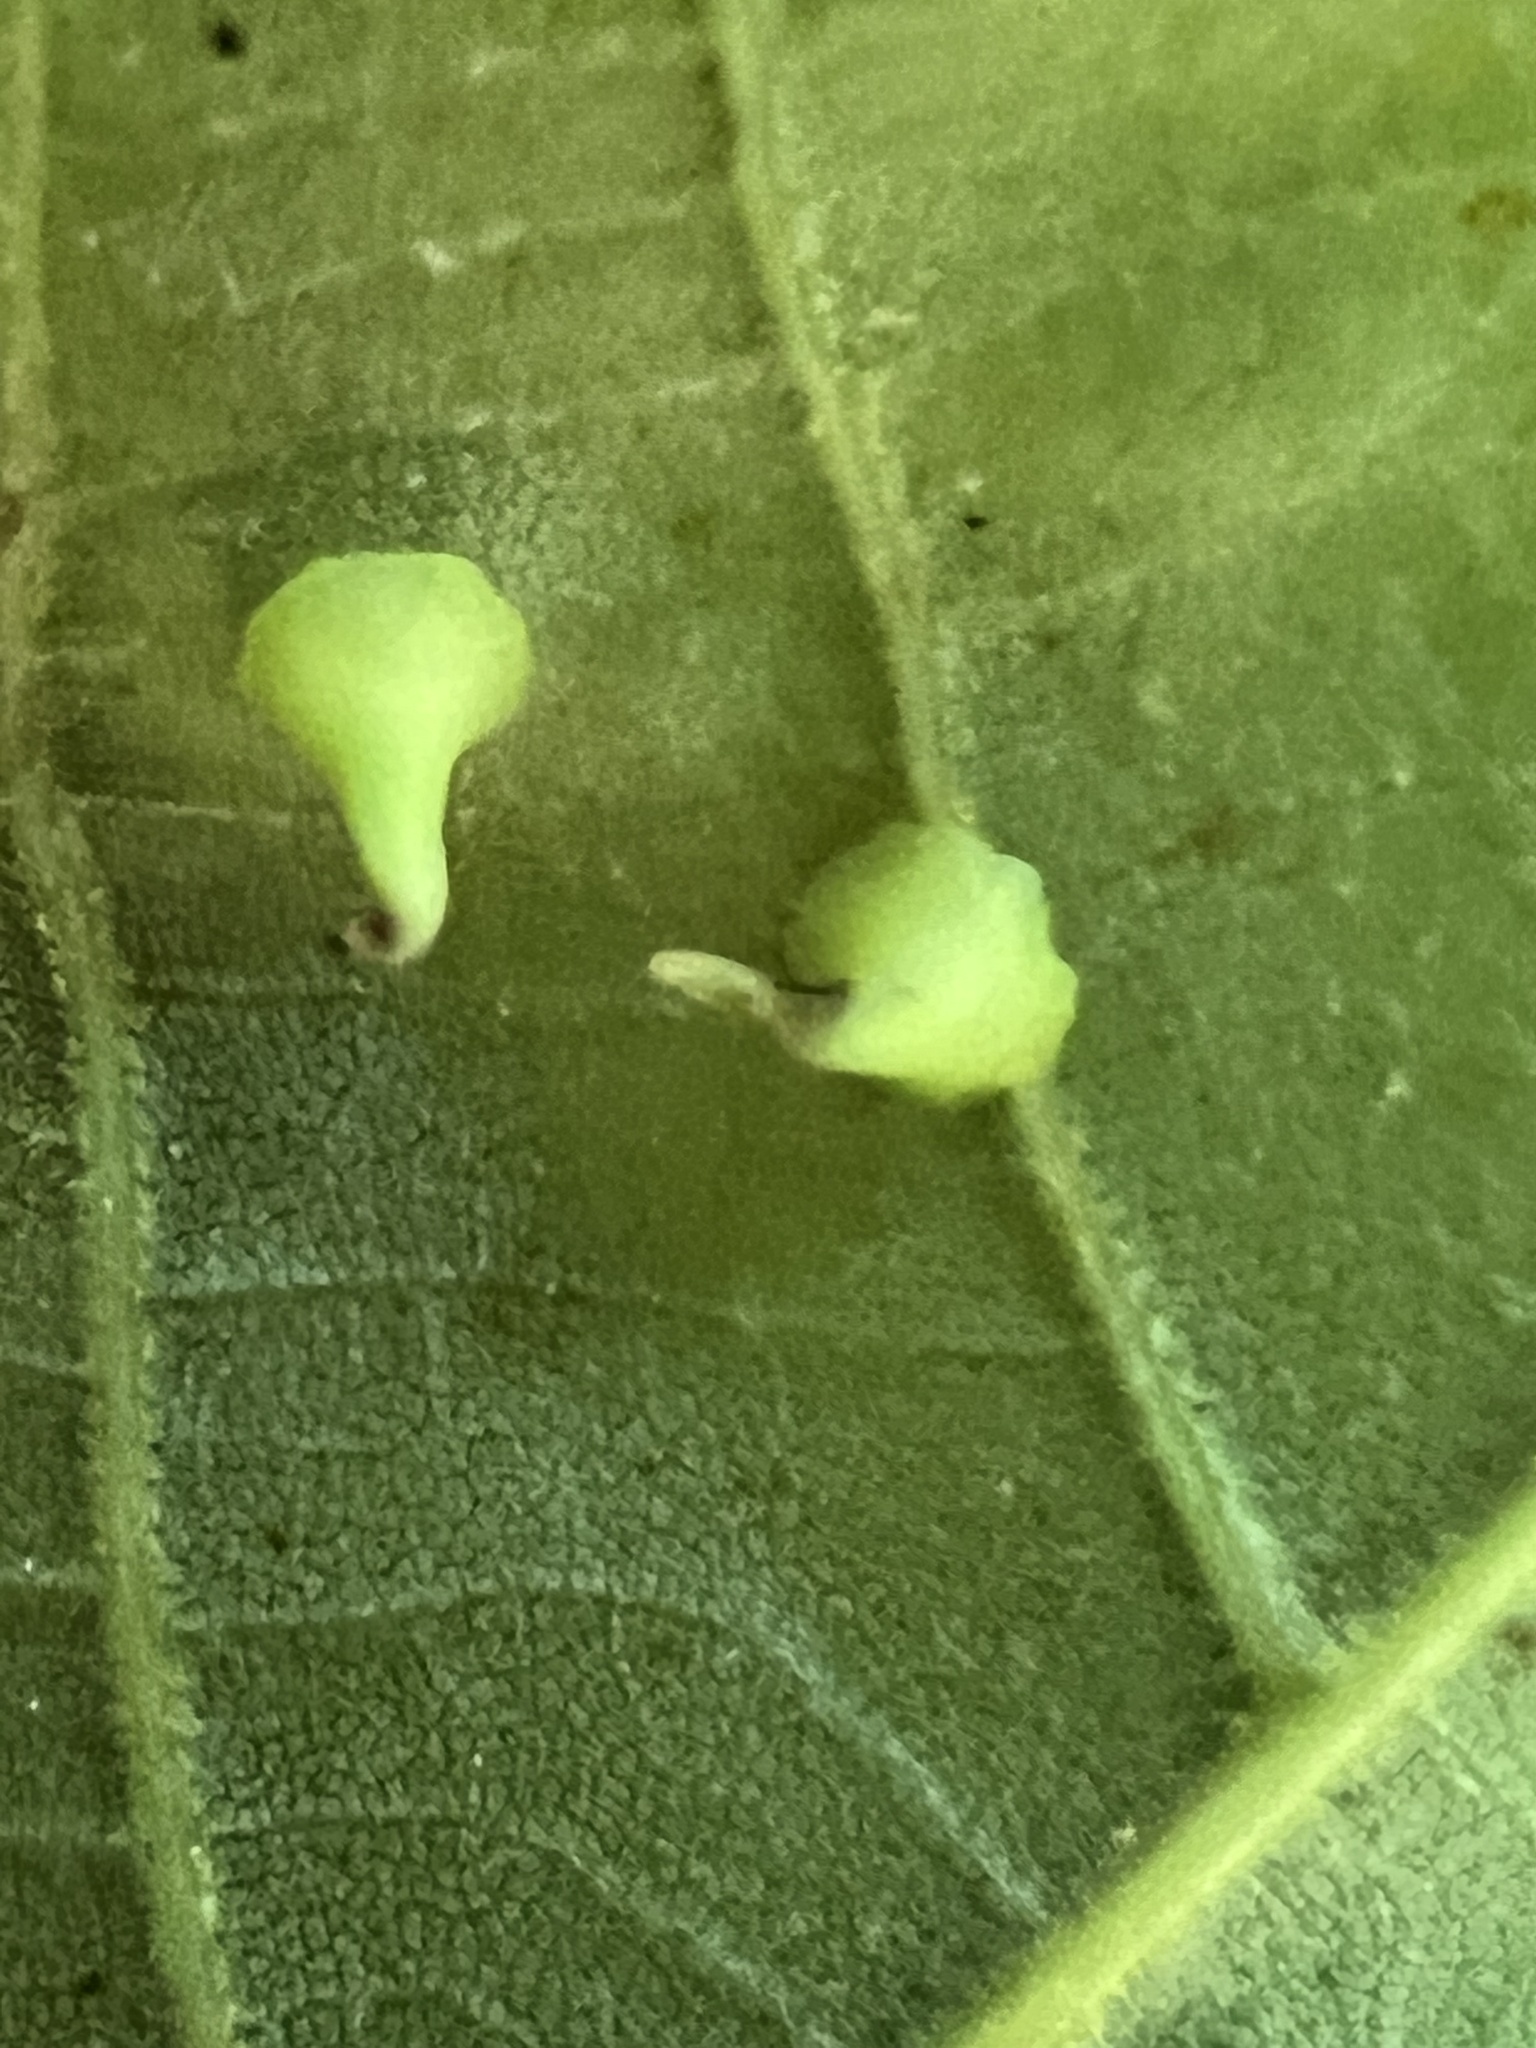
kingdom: Animalia
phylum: Arthropoda
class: Insecta
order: Diptera
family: Cecidomyiidae
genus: Caryomyia
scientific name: Caryomyia sanguinolenta
